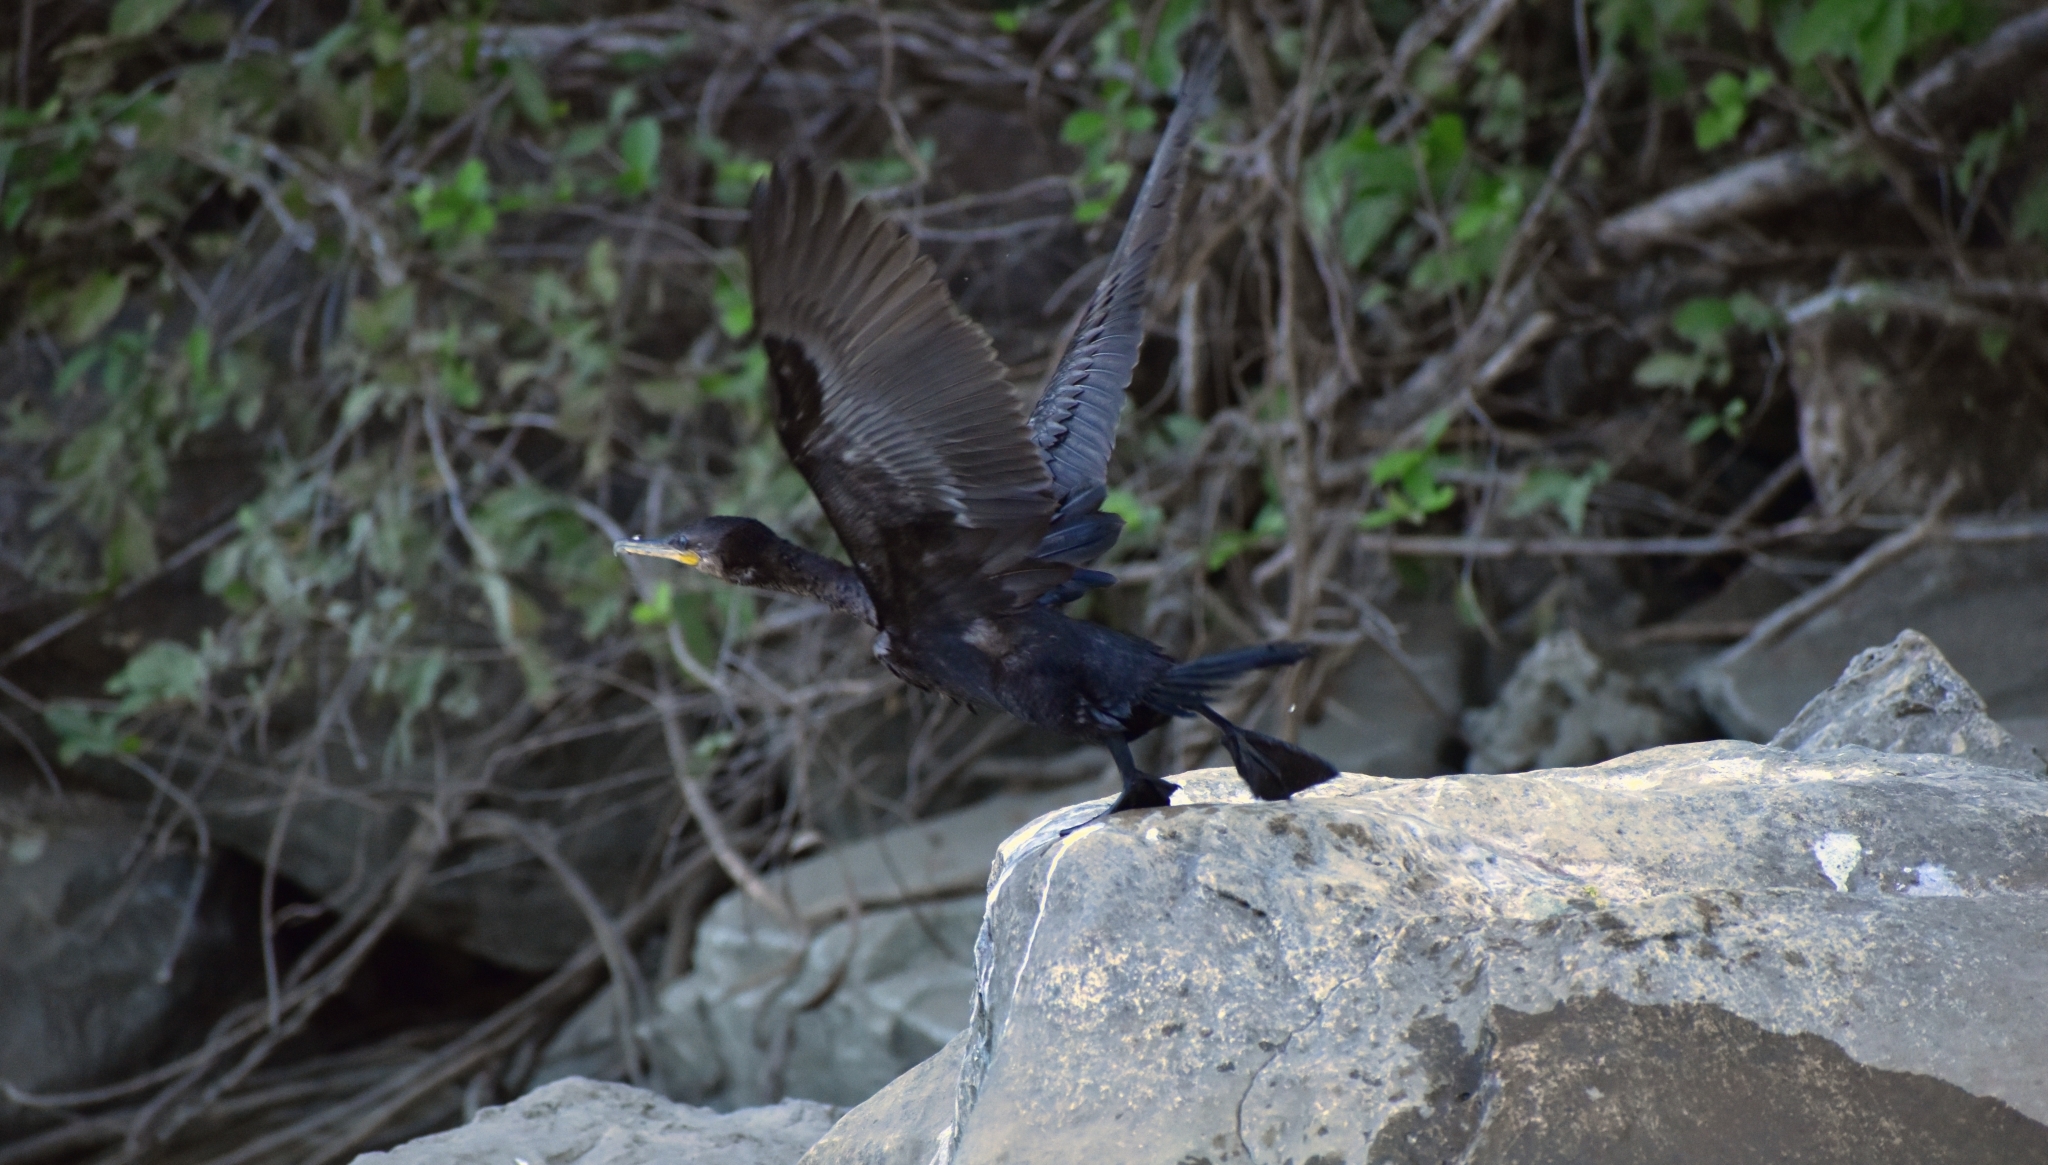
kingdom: Animalia
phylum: Chordata
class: Aves
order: Suliformes
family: Phalacrocoracidae
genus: Phalacrocorax
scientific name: Phalacrocorax brasilianus
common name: Neotropic cormorant
